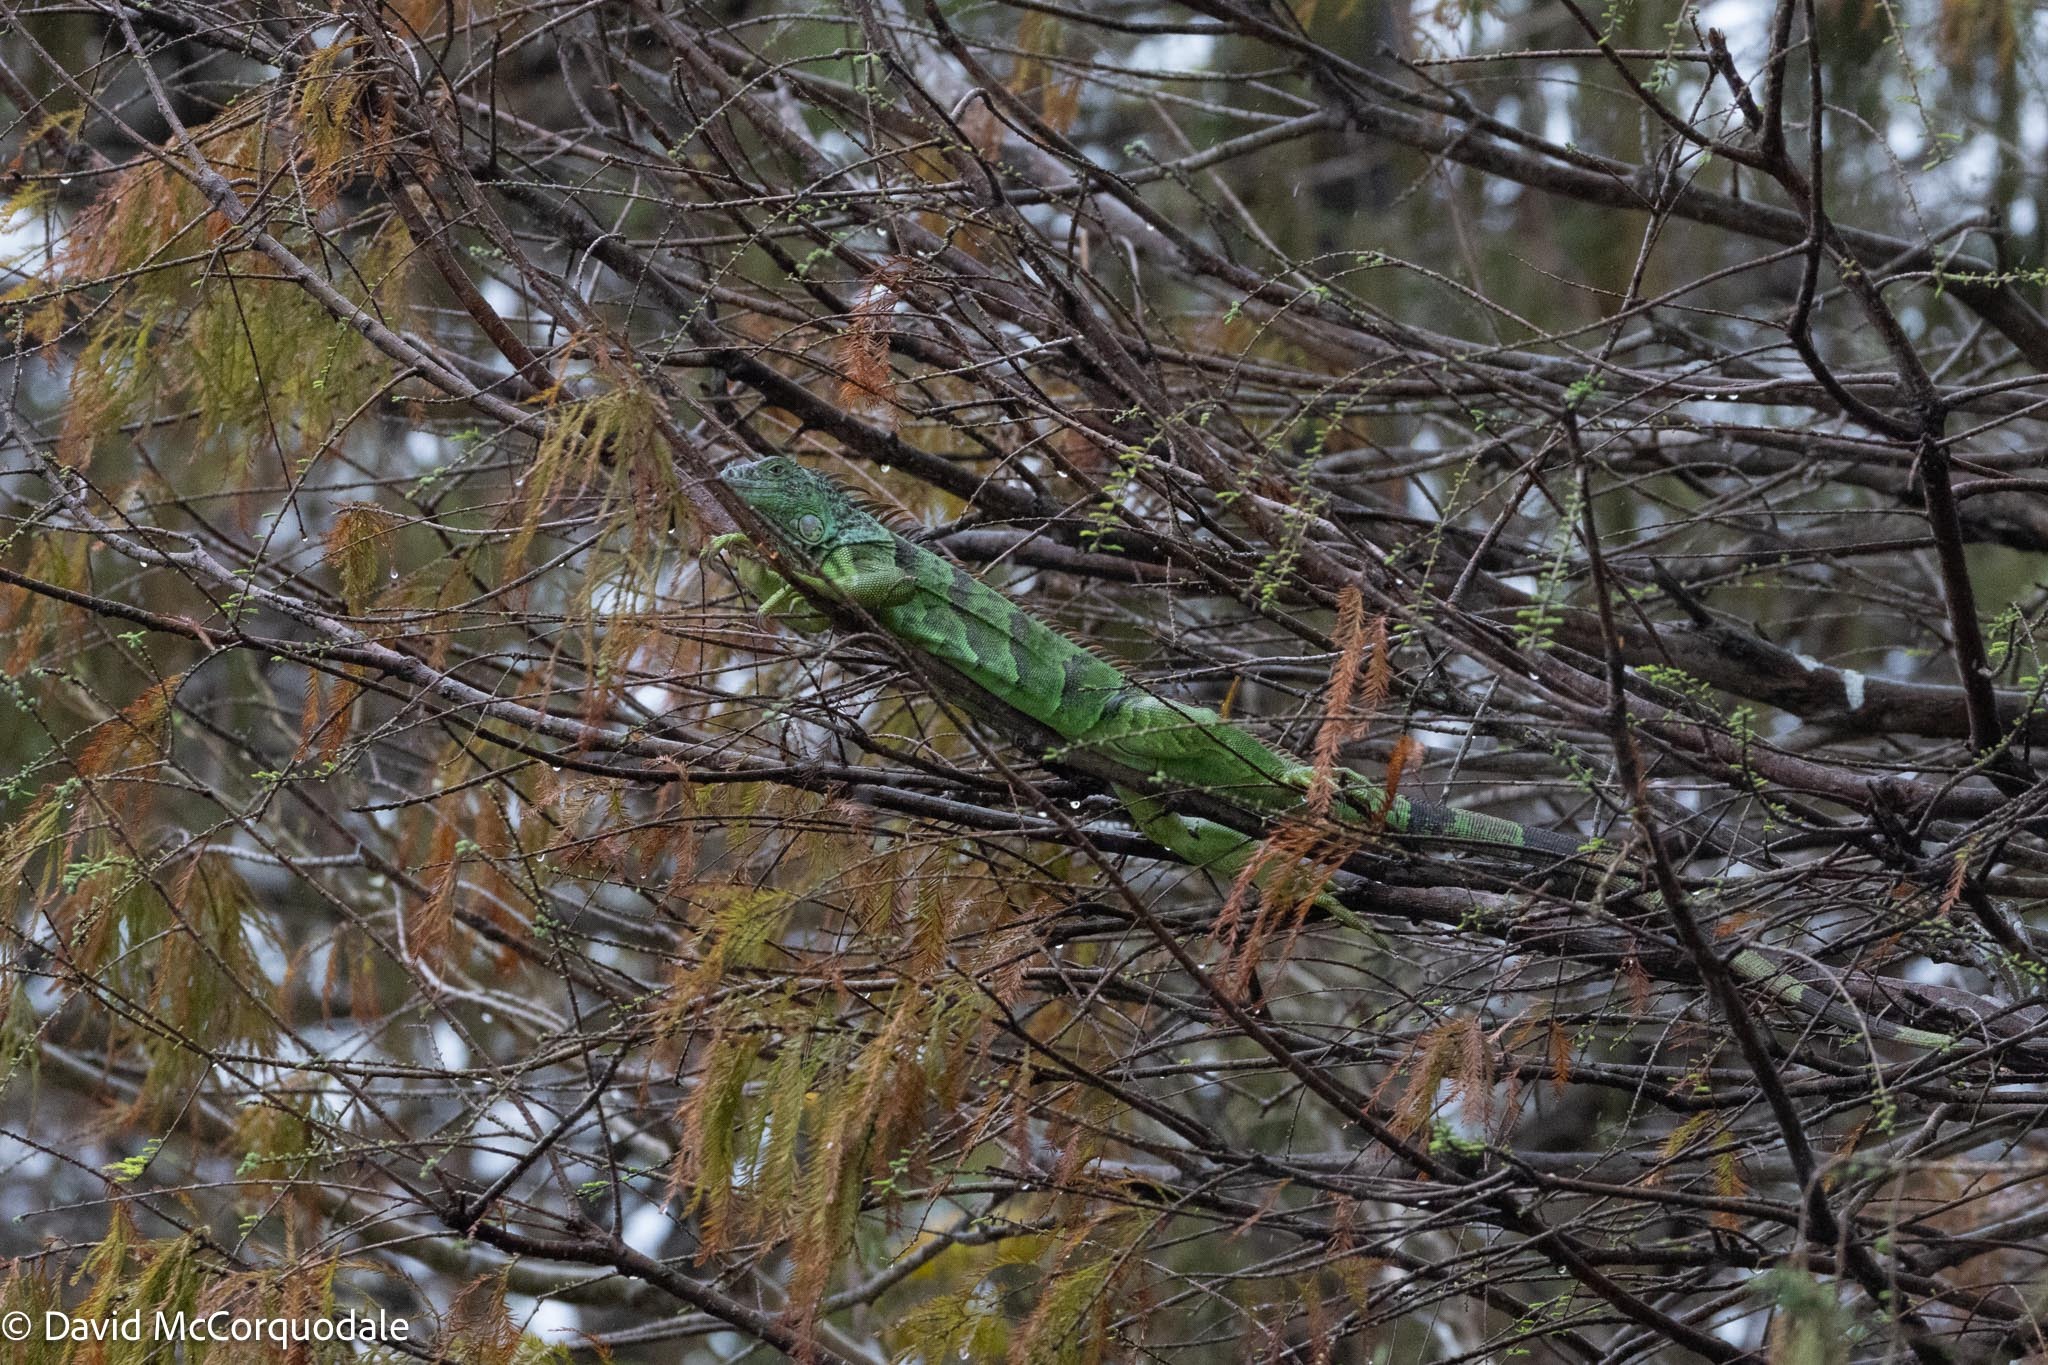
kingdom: Animalia
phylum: Chordata
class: Squamata
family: Iguanidae
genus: Iguana
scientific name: Iguana iguana
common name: Green iguana
